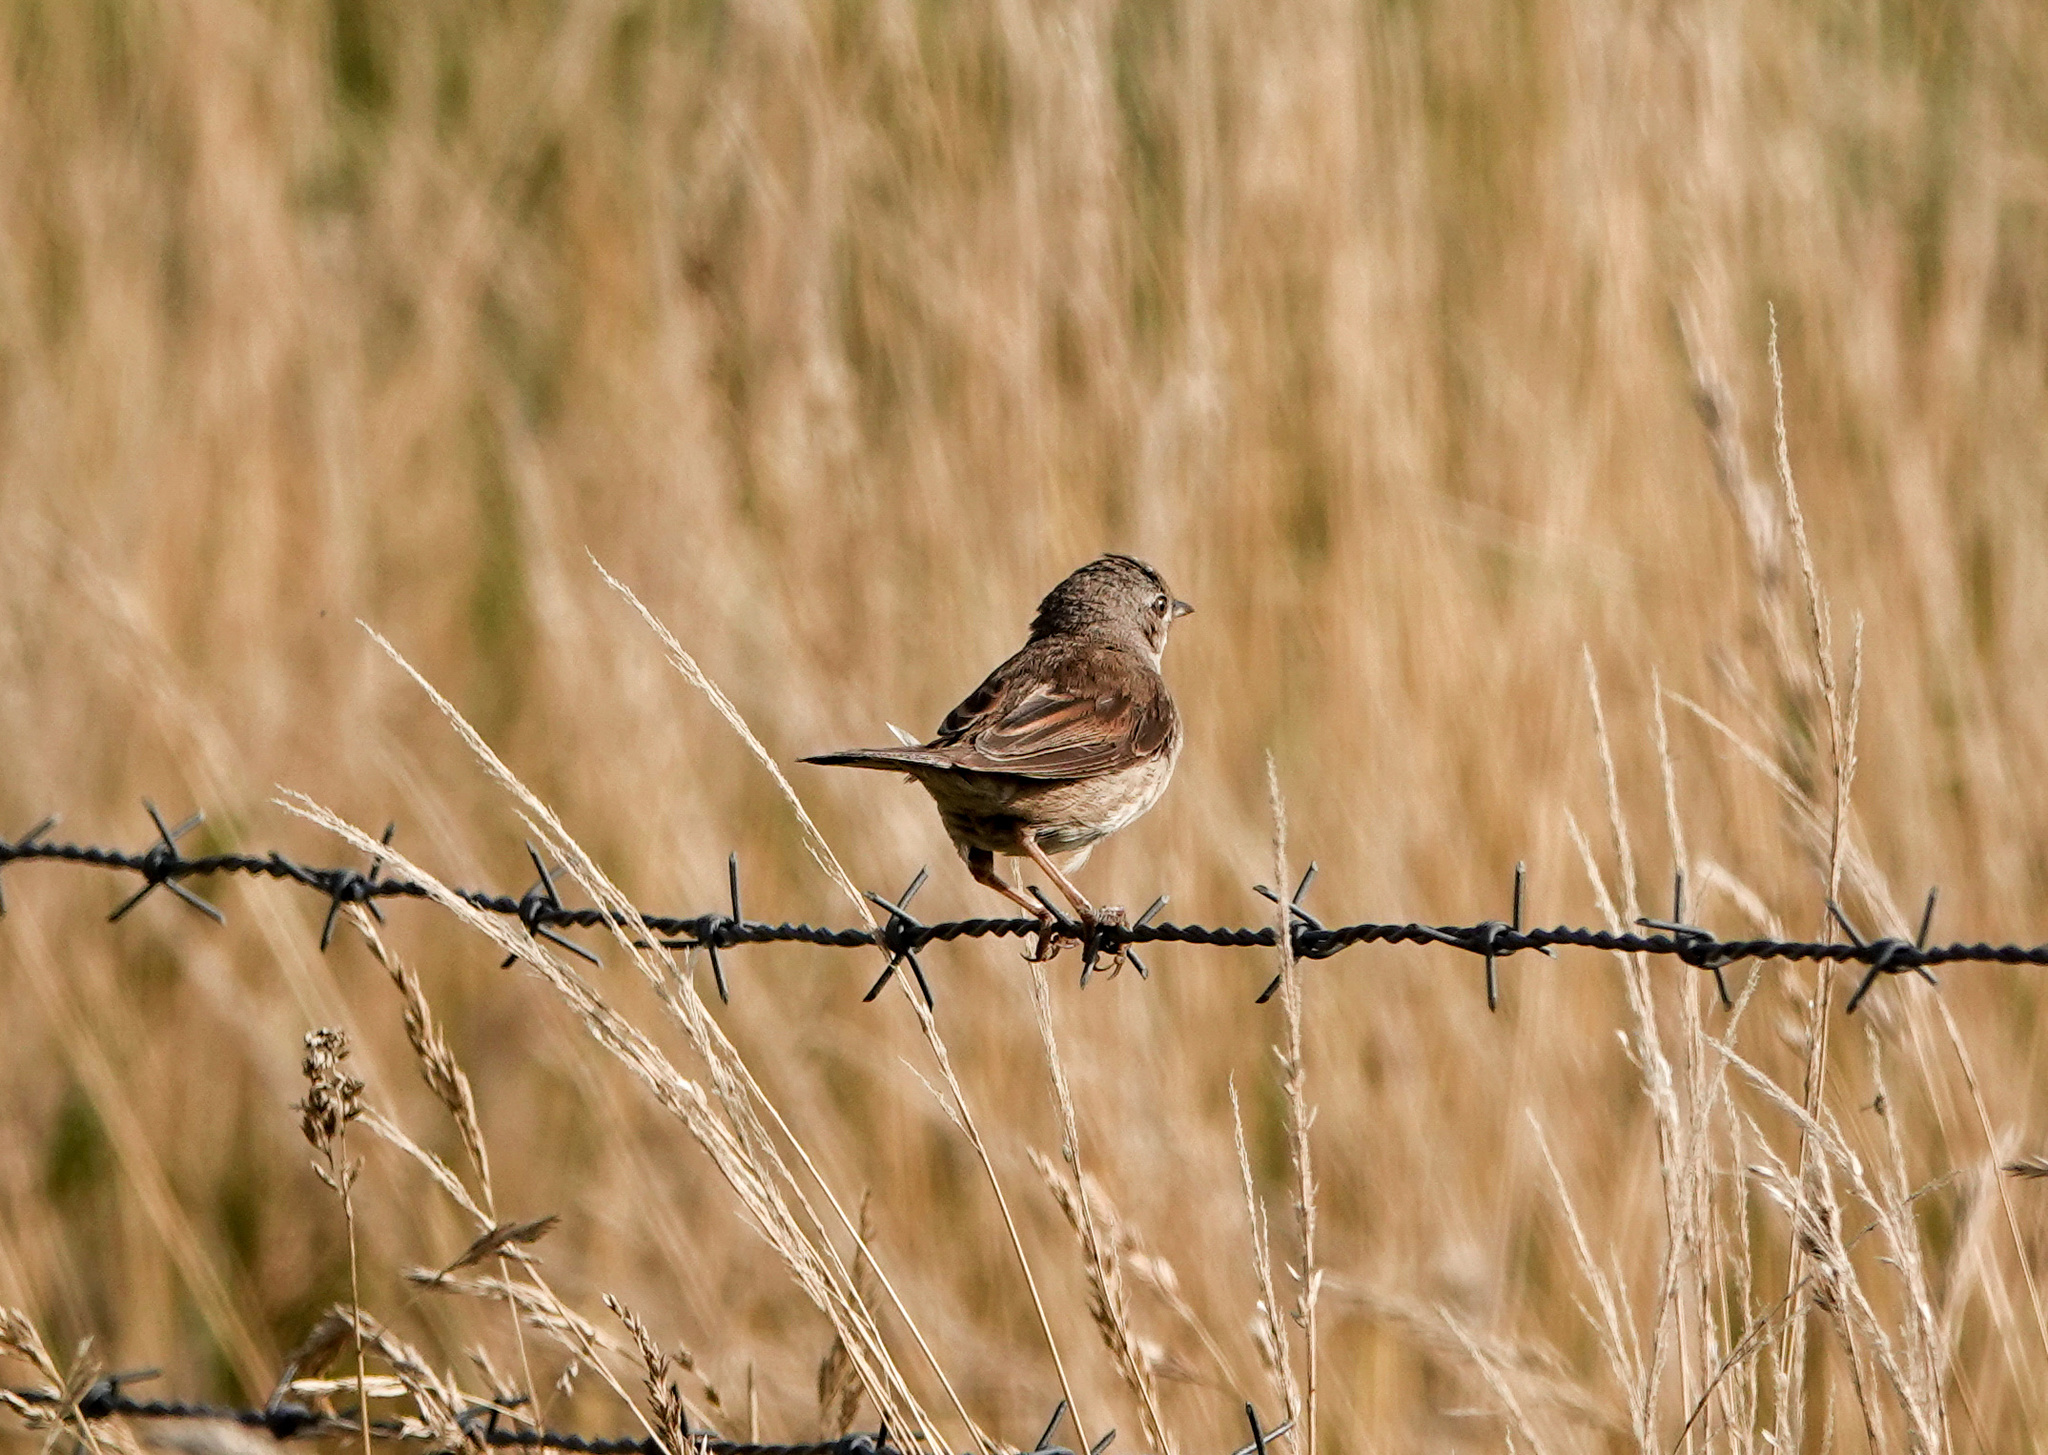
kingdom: Animalia
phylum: Chordata
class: Aves
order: Passeriformes
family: Sylviidae
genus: Sylvia
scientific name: Sylvia communis
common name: Common whitethroat
